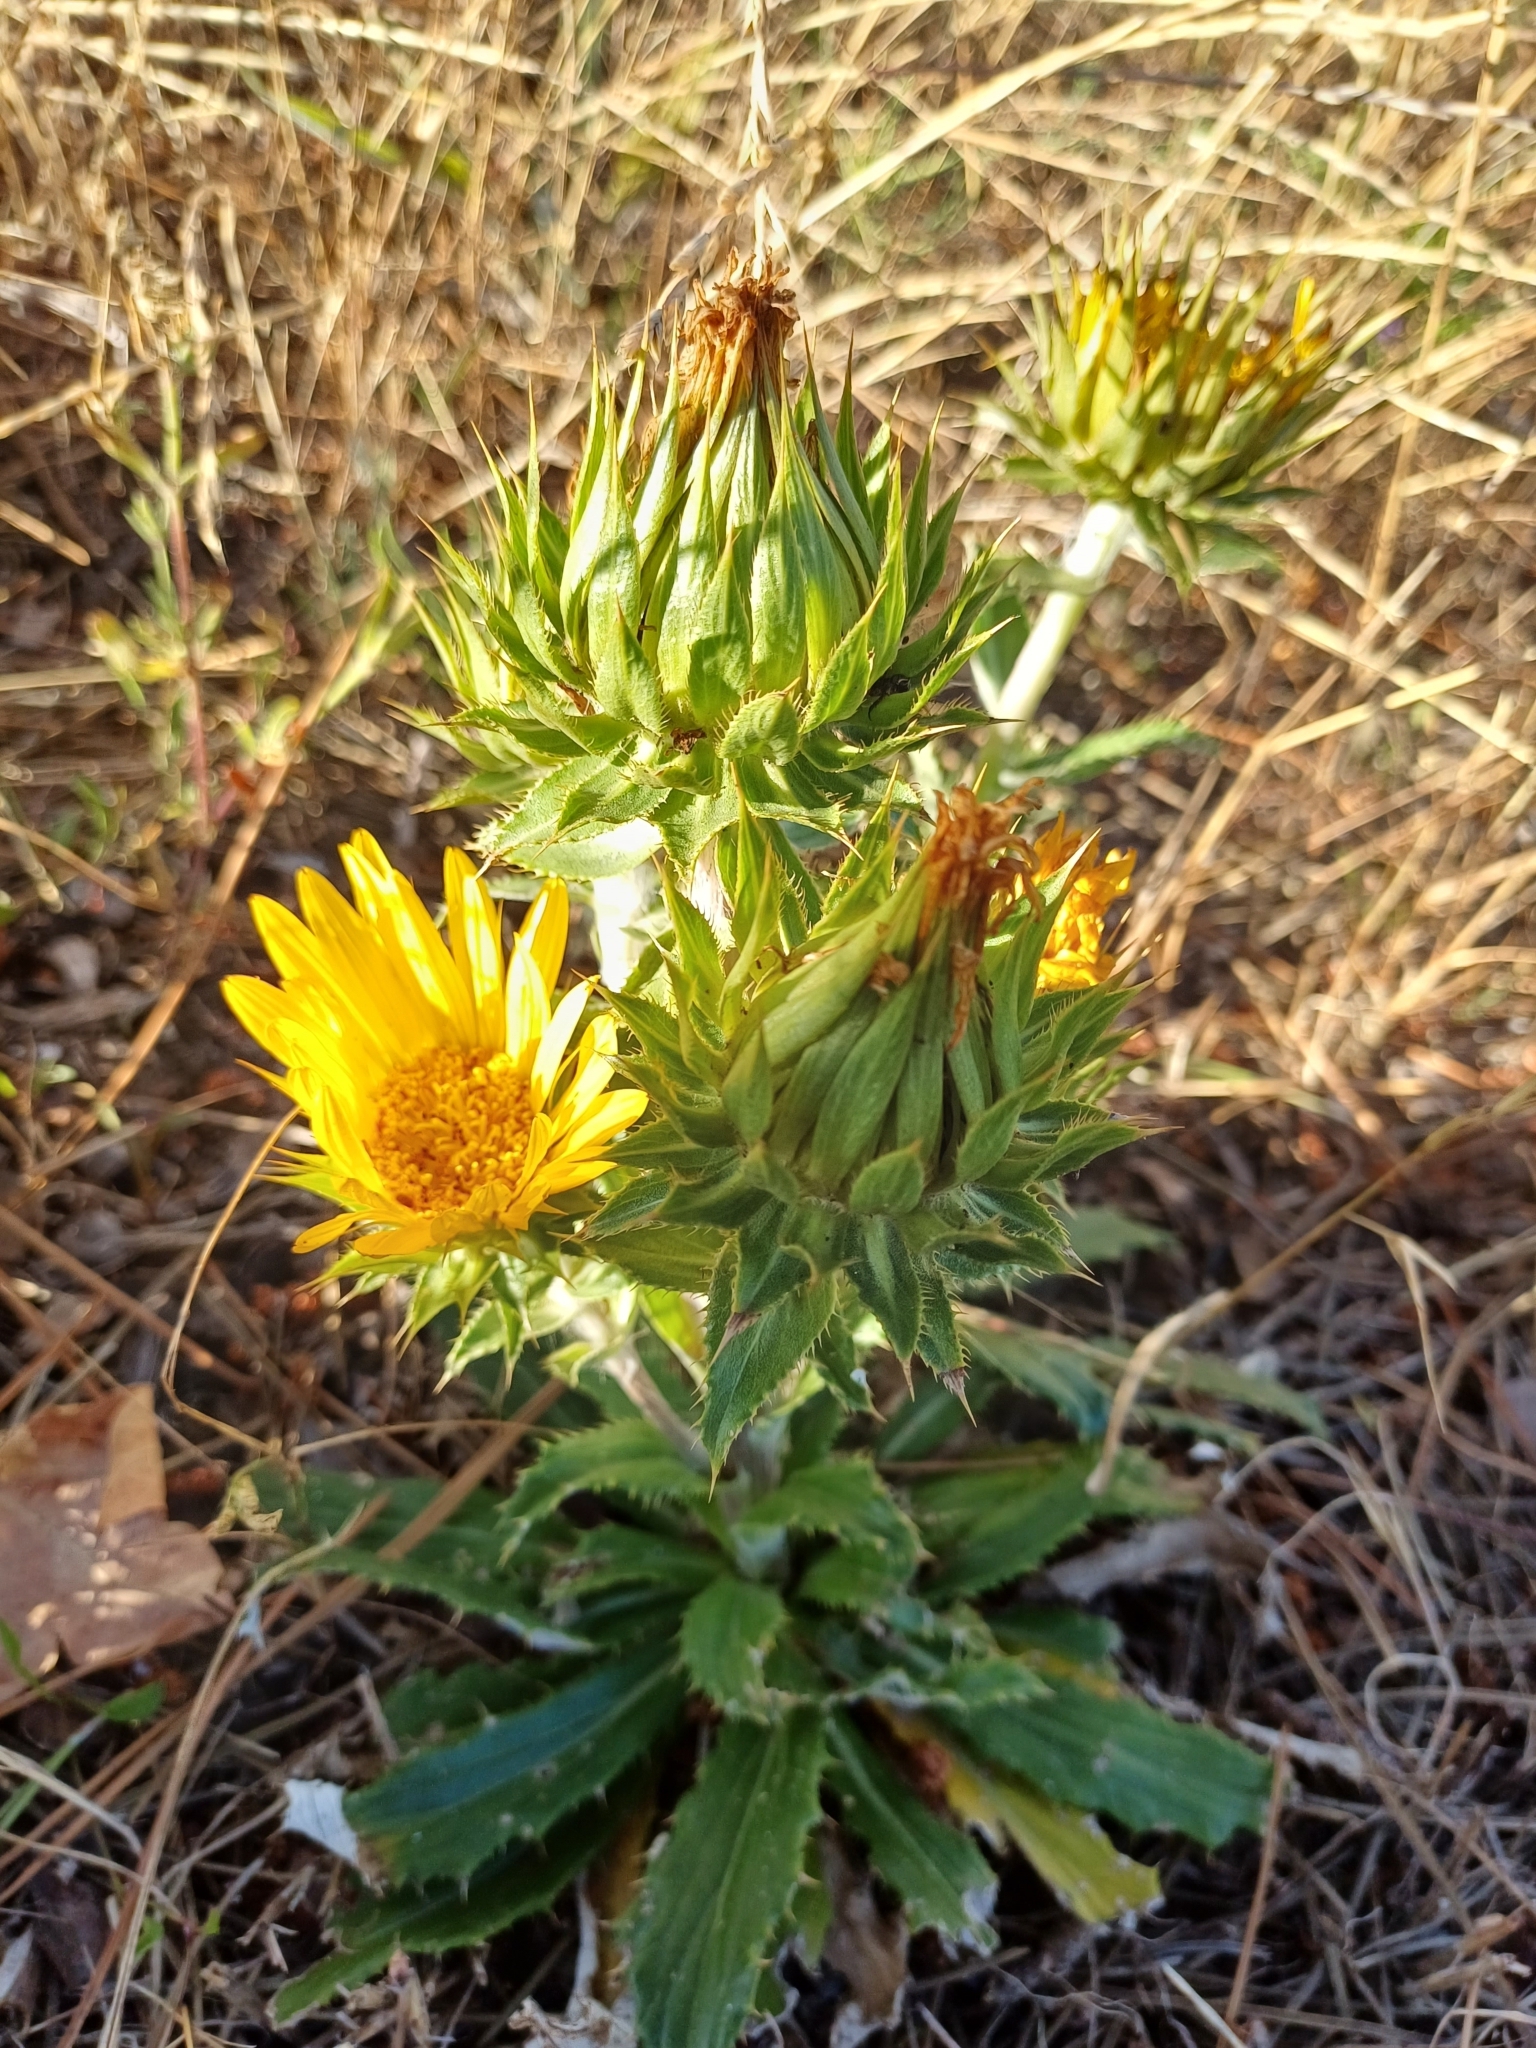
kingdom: Plantae
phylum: Tracheophyta
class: Magnoliopsida
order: Asterales
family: Asteraceae
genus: Berkheya
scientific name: Berkheya armata
